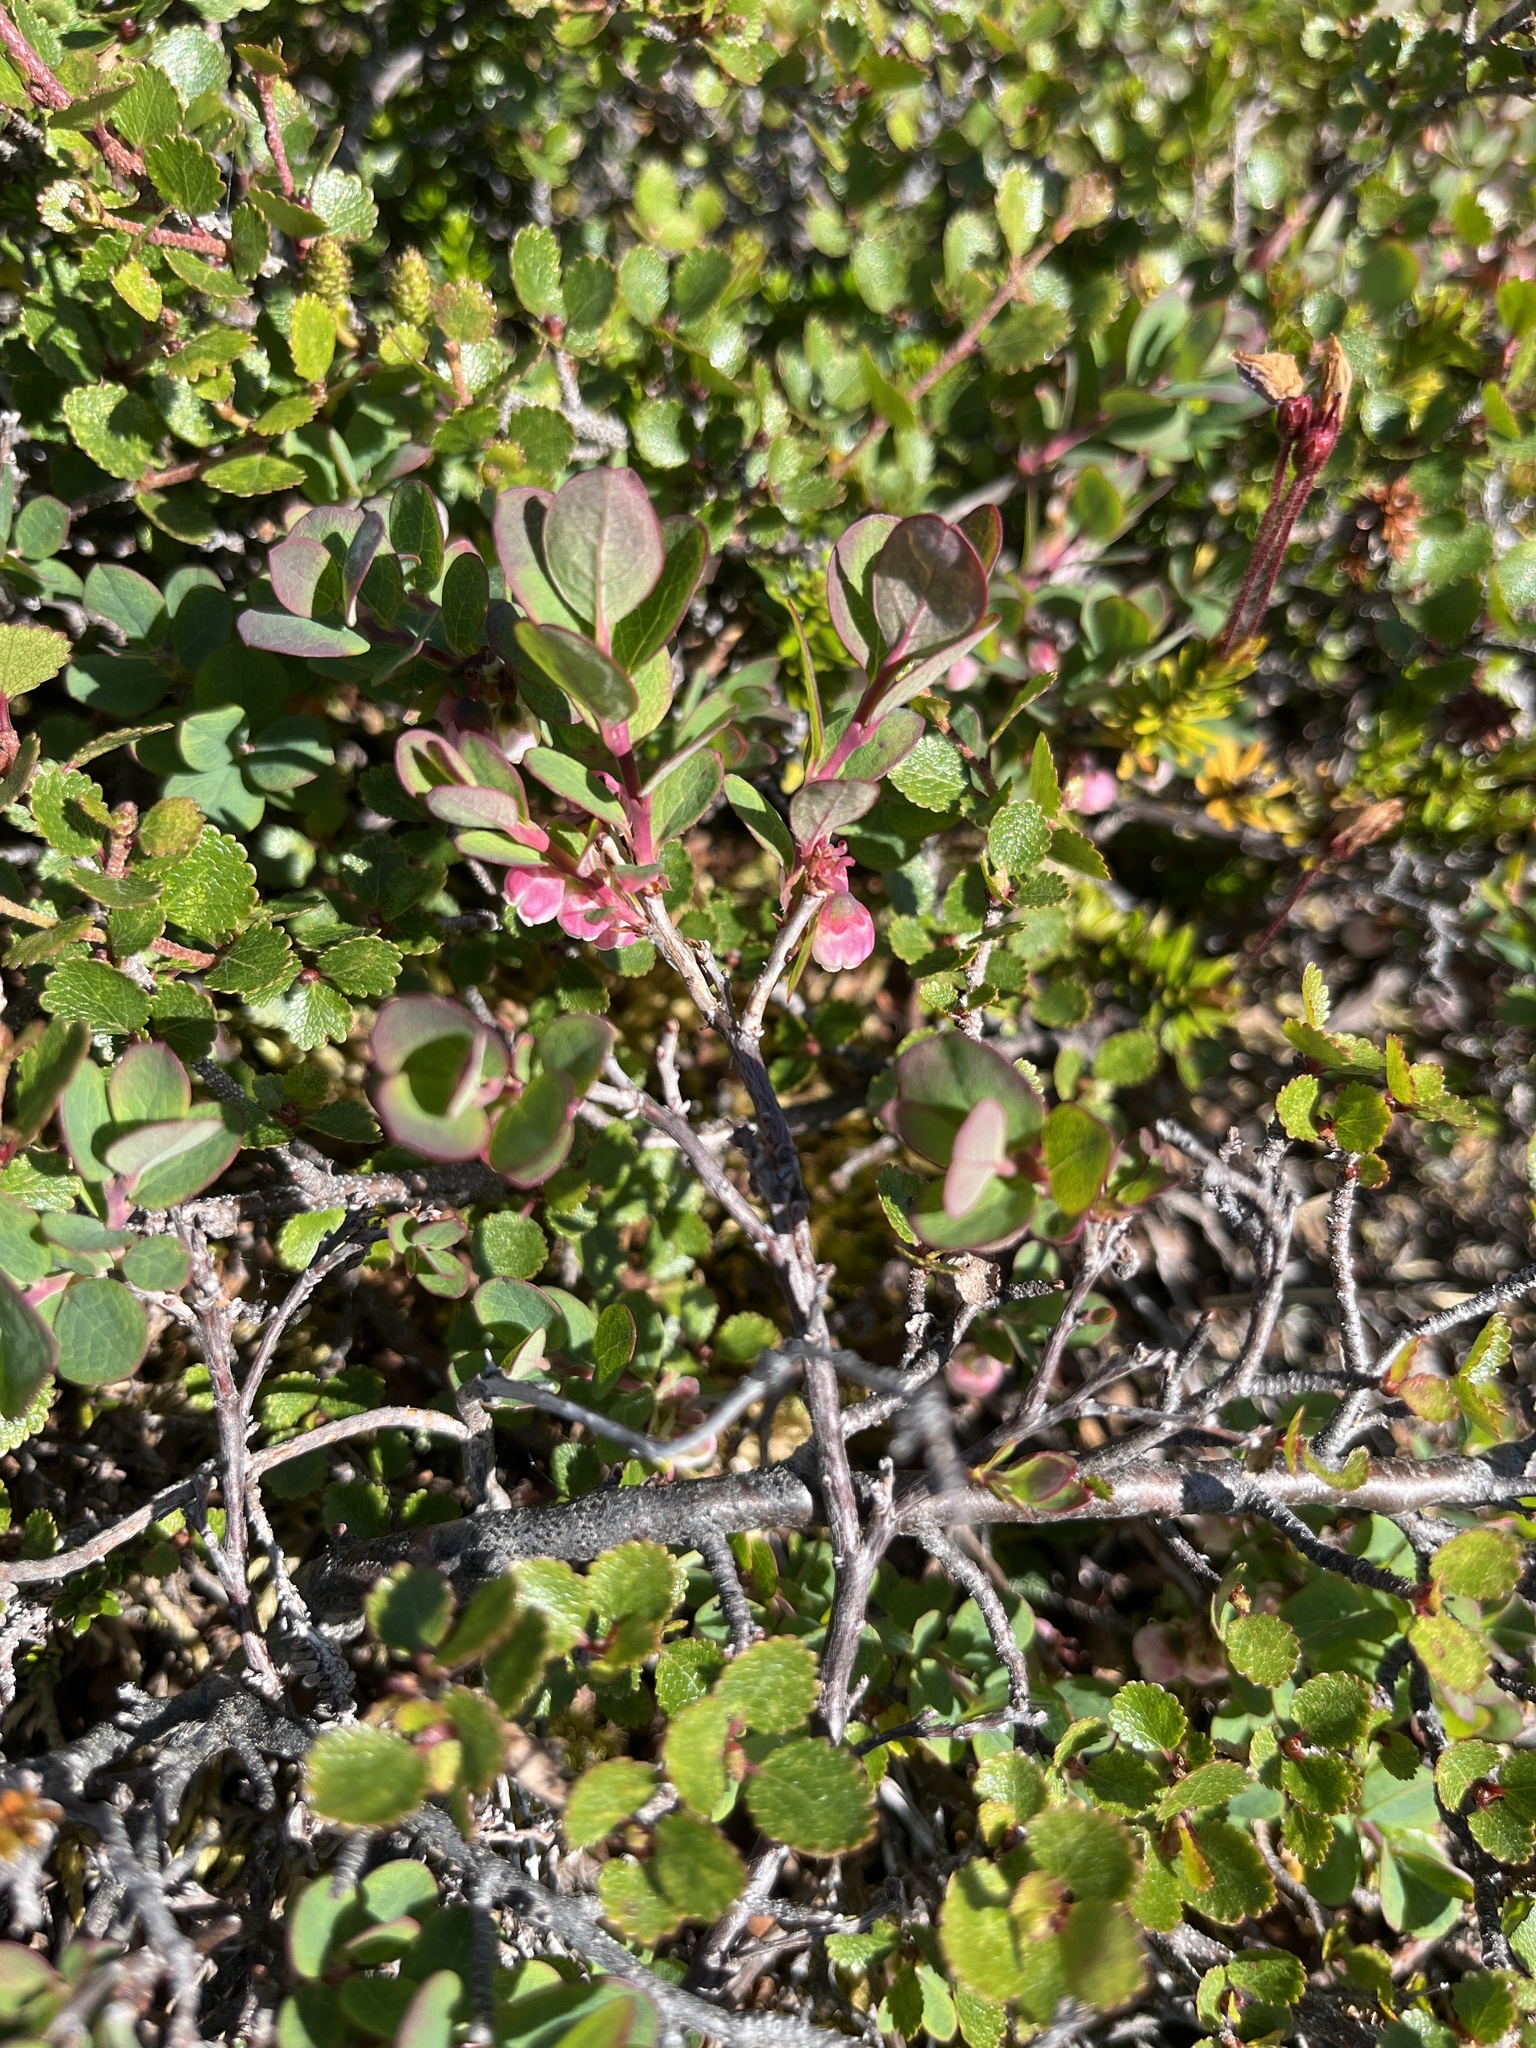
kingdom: Plantae
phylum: Tracheophyta
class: Magnoliopsida
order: Ericales
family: Ericaceae
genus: Vaccinium
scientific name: Vaccinium uliginosum
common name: Bog bilberry
